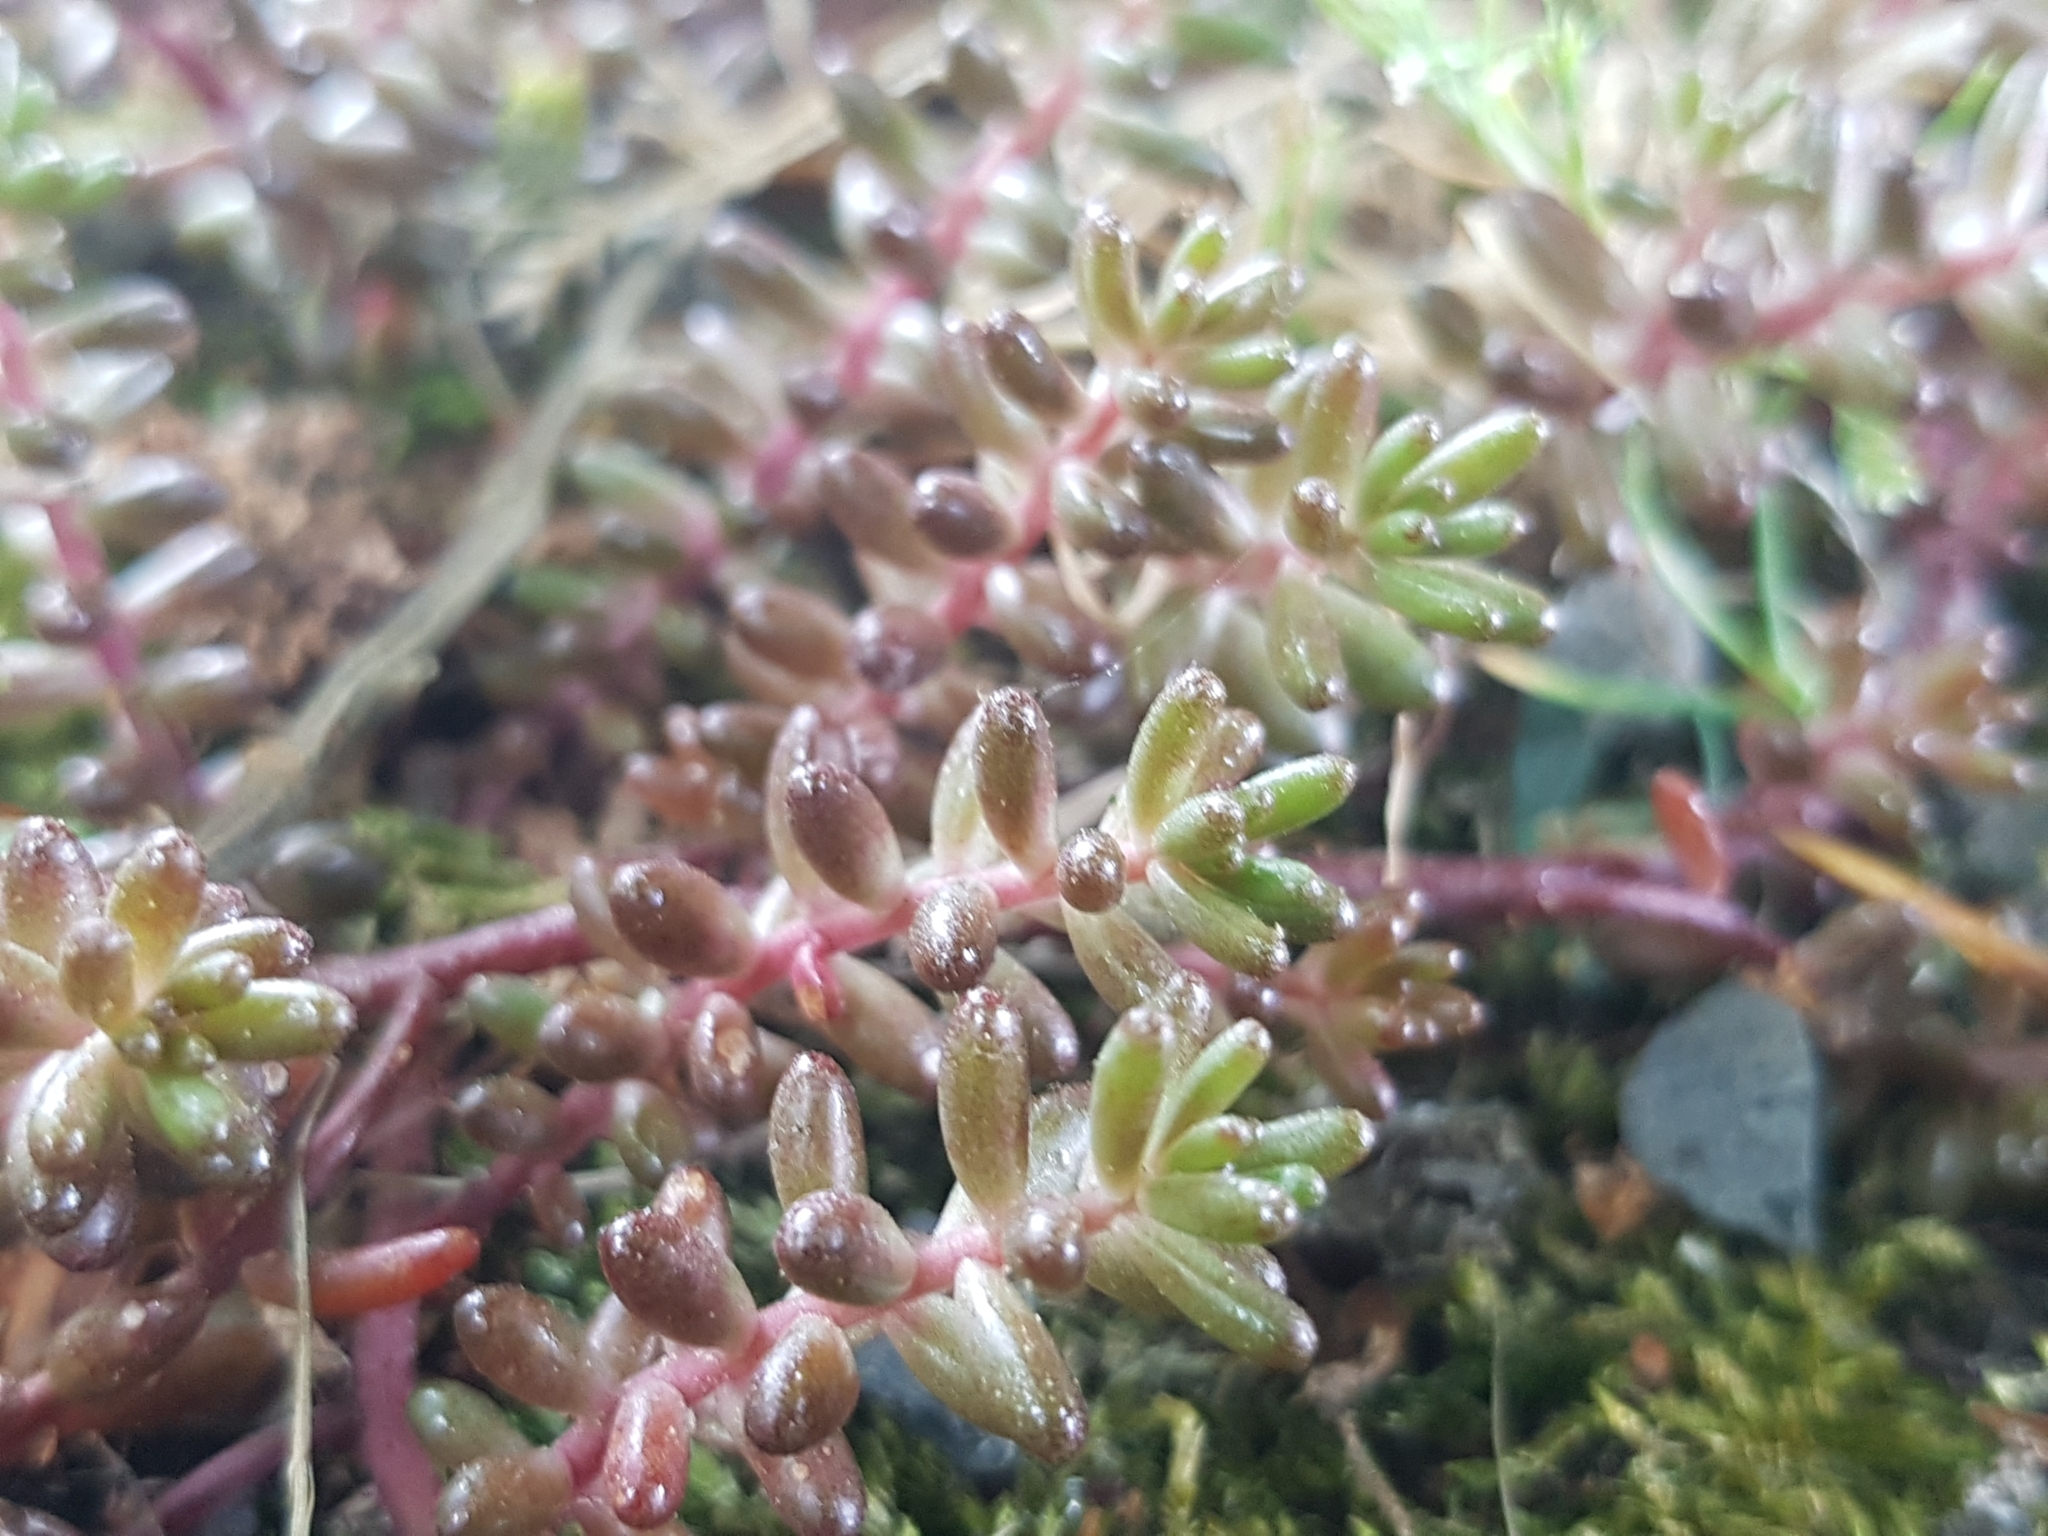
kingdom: Plantae
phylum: Tracheophyta
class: Magnoliopsida
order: Saxifragales
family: Crassulaceae
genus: Sedum
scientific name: Sedum album
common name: White stonecrop
